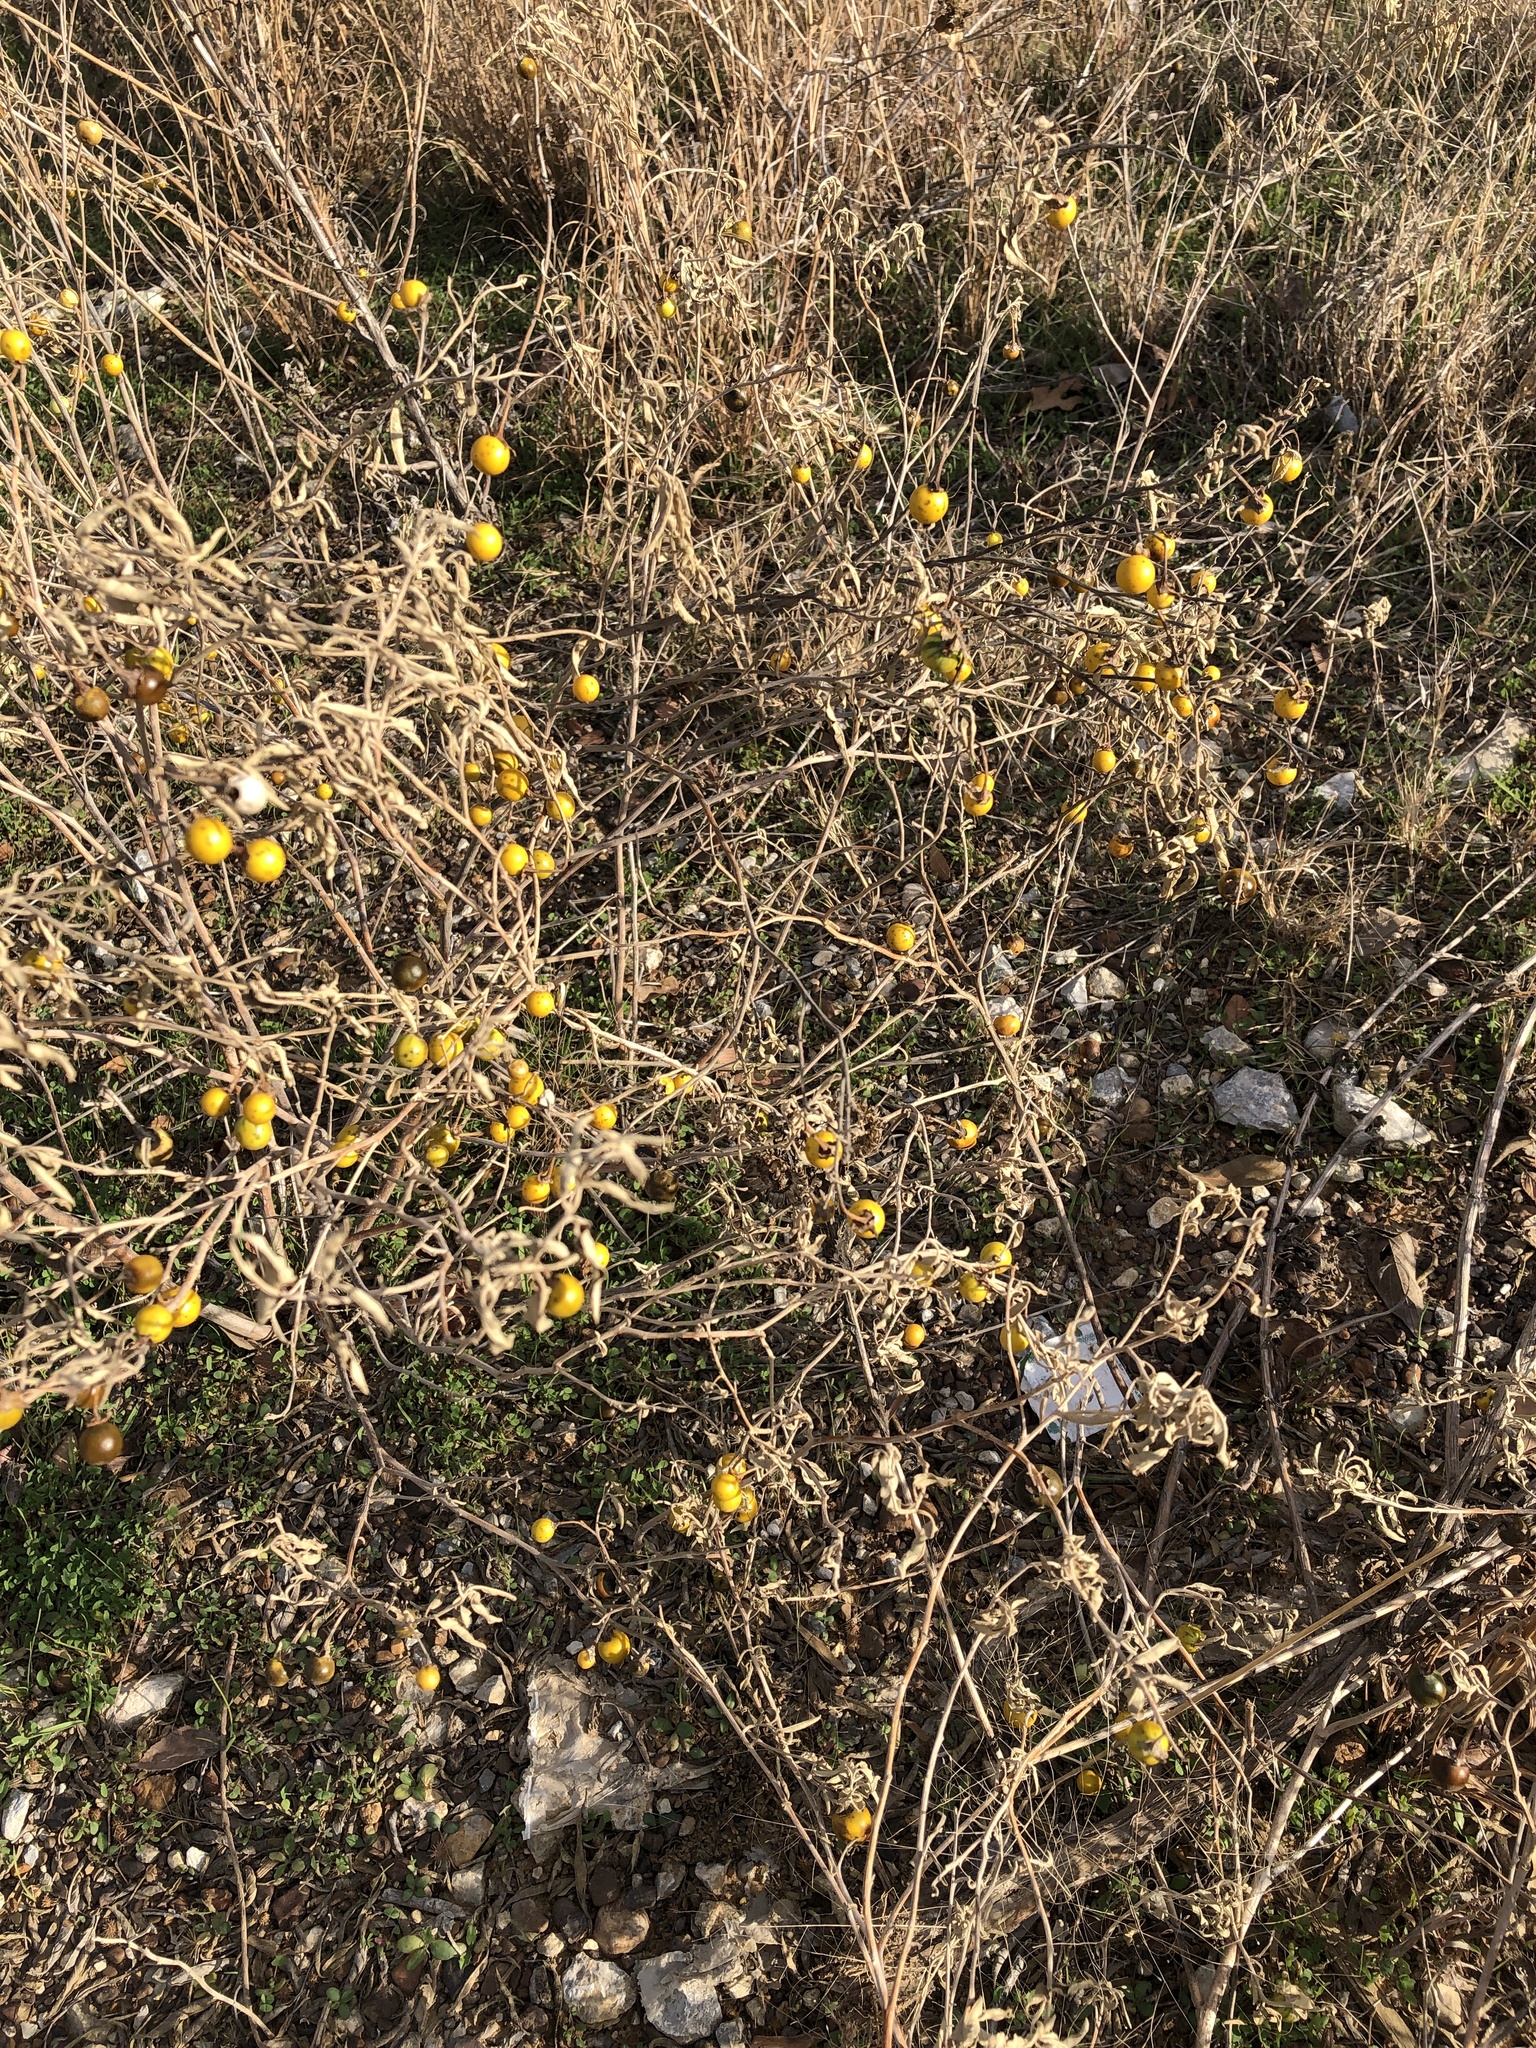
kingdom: Plantae
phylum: Tracheophyta
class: Magnoliopsida
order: Solanales
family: Solanaceae
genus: Solanum
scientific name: Solanum elaeagnifolium
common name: Silverleaf nightshade
